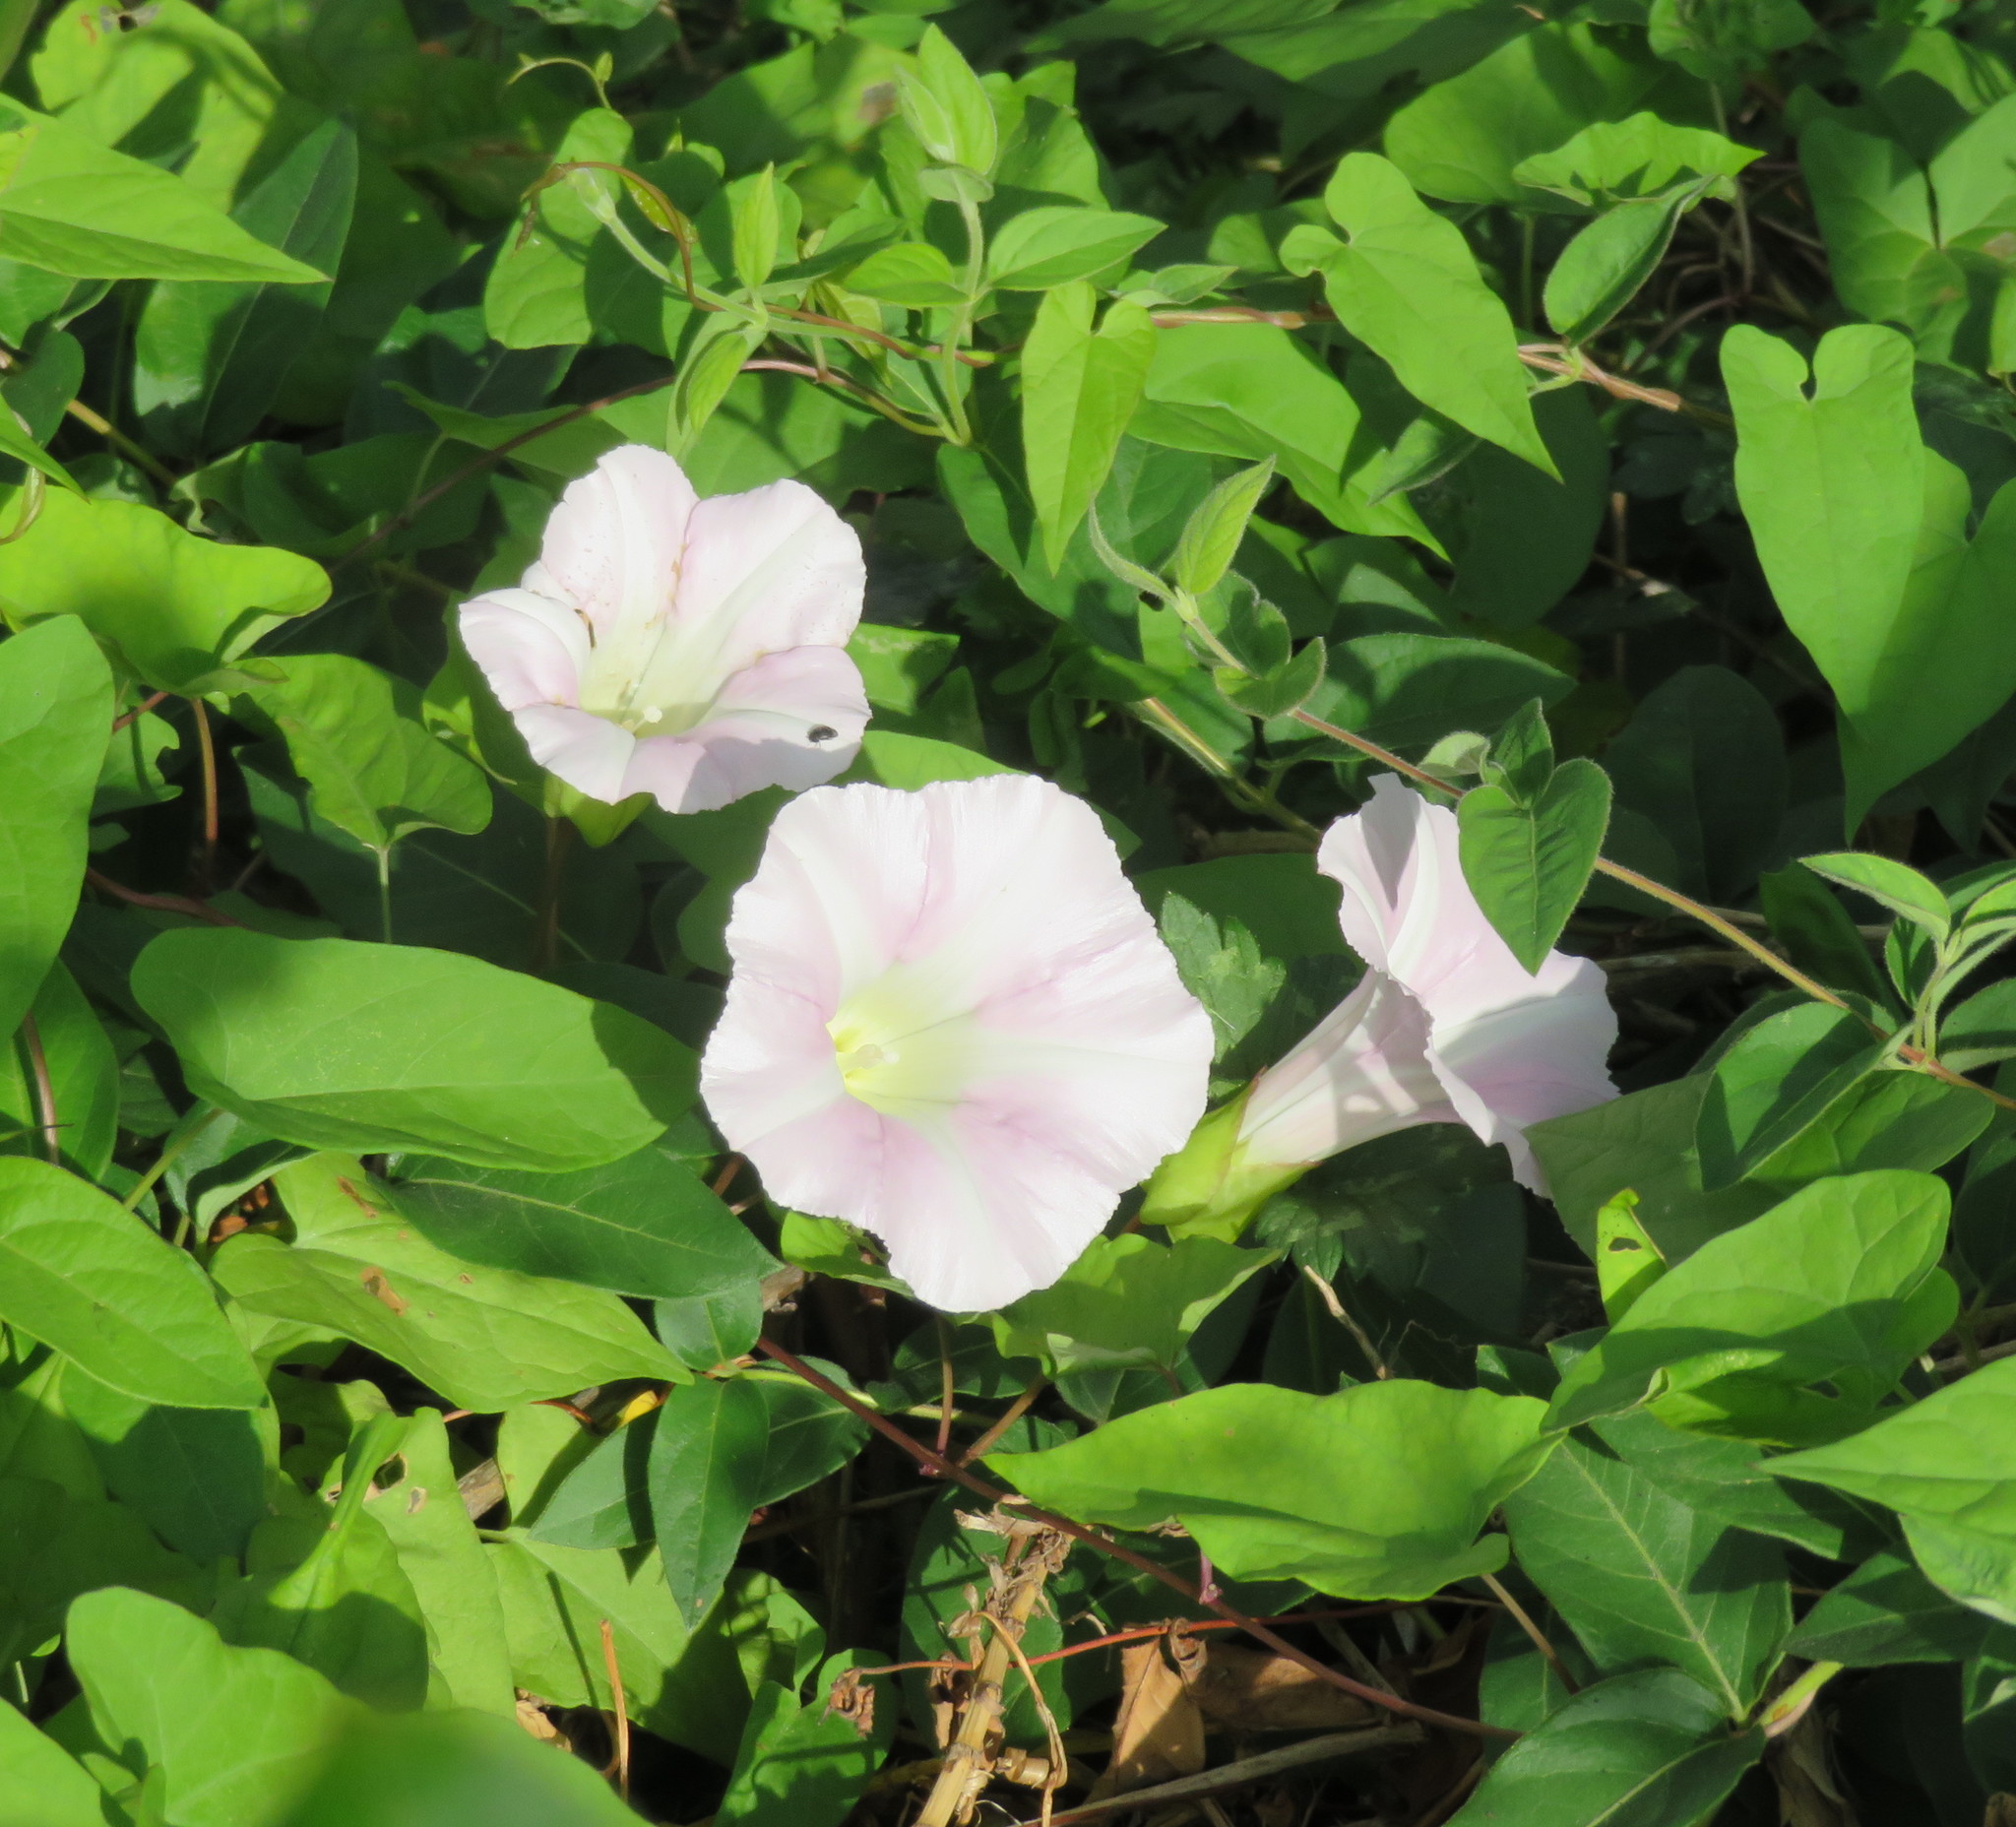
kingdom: Plantae
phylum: Tracheophyta
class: Magnoliopsida
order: Solanales
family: Convolvulaceae
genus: Calystegia
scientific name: Calystegia
